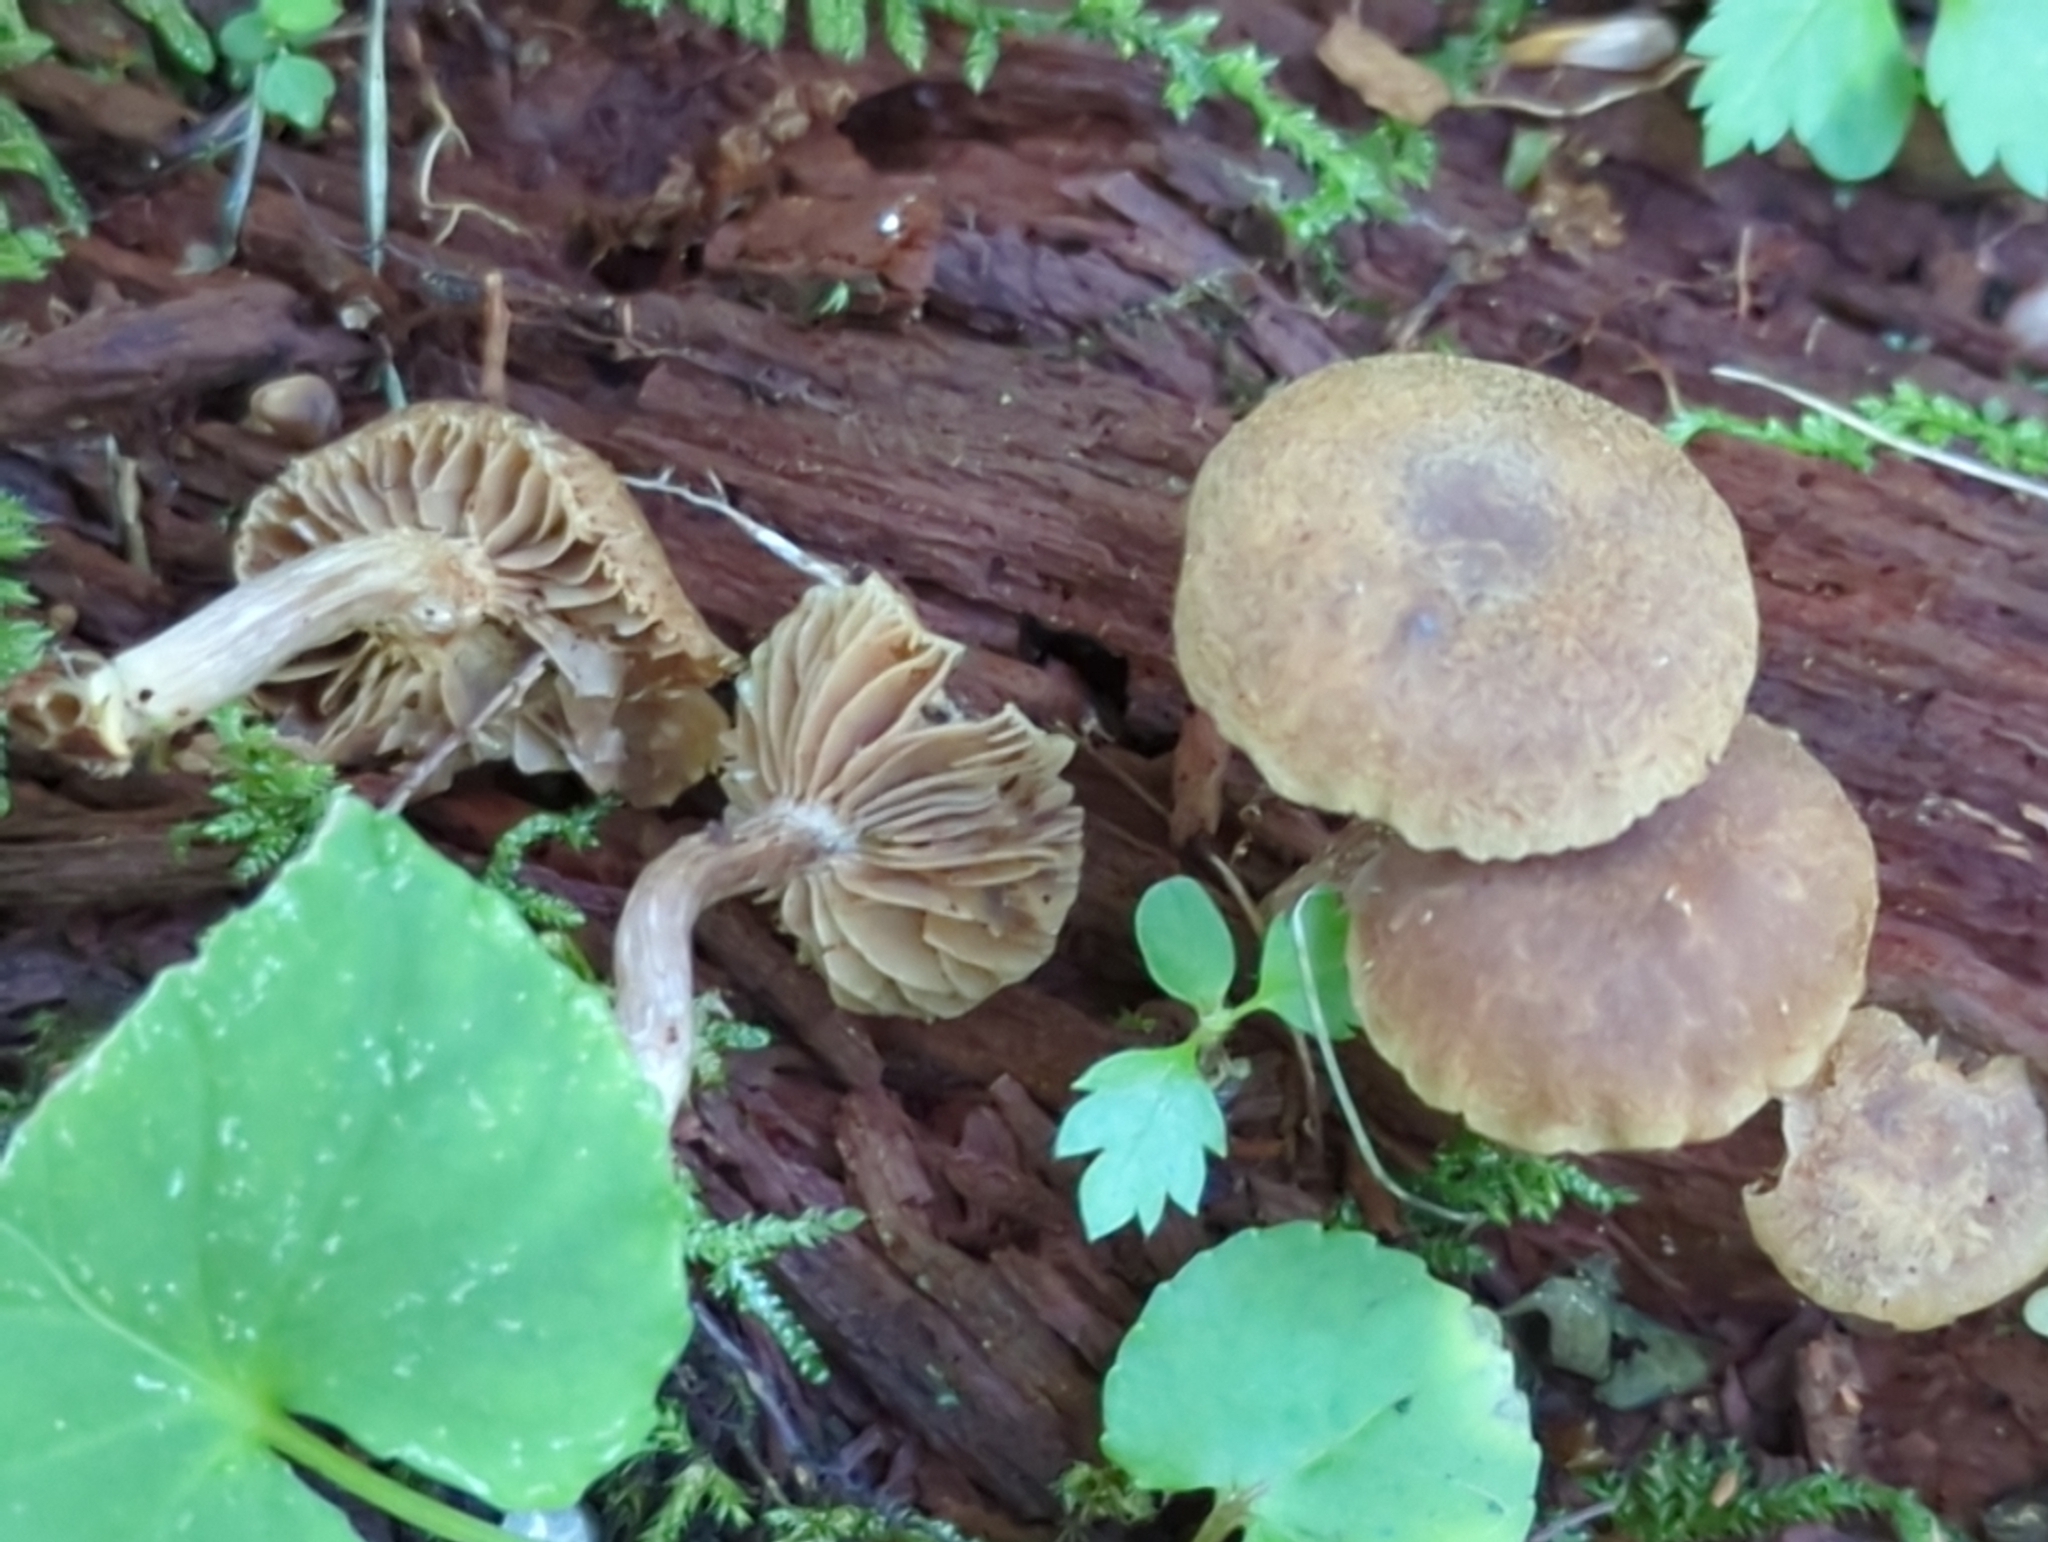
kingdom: Fungi
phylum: Basidiomycota
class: Agaricomycetes
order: Agaricales
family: Inocybaceae
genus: Inocybe
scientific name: Inocybe tubarioides
